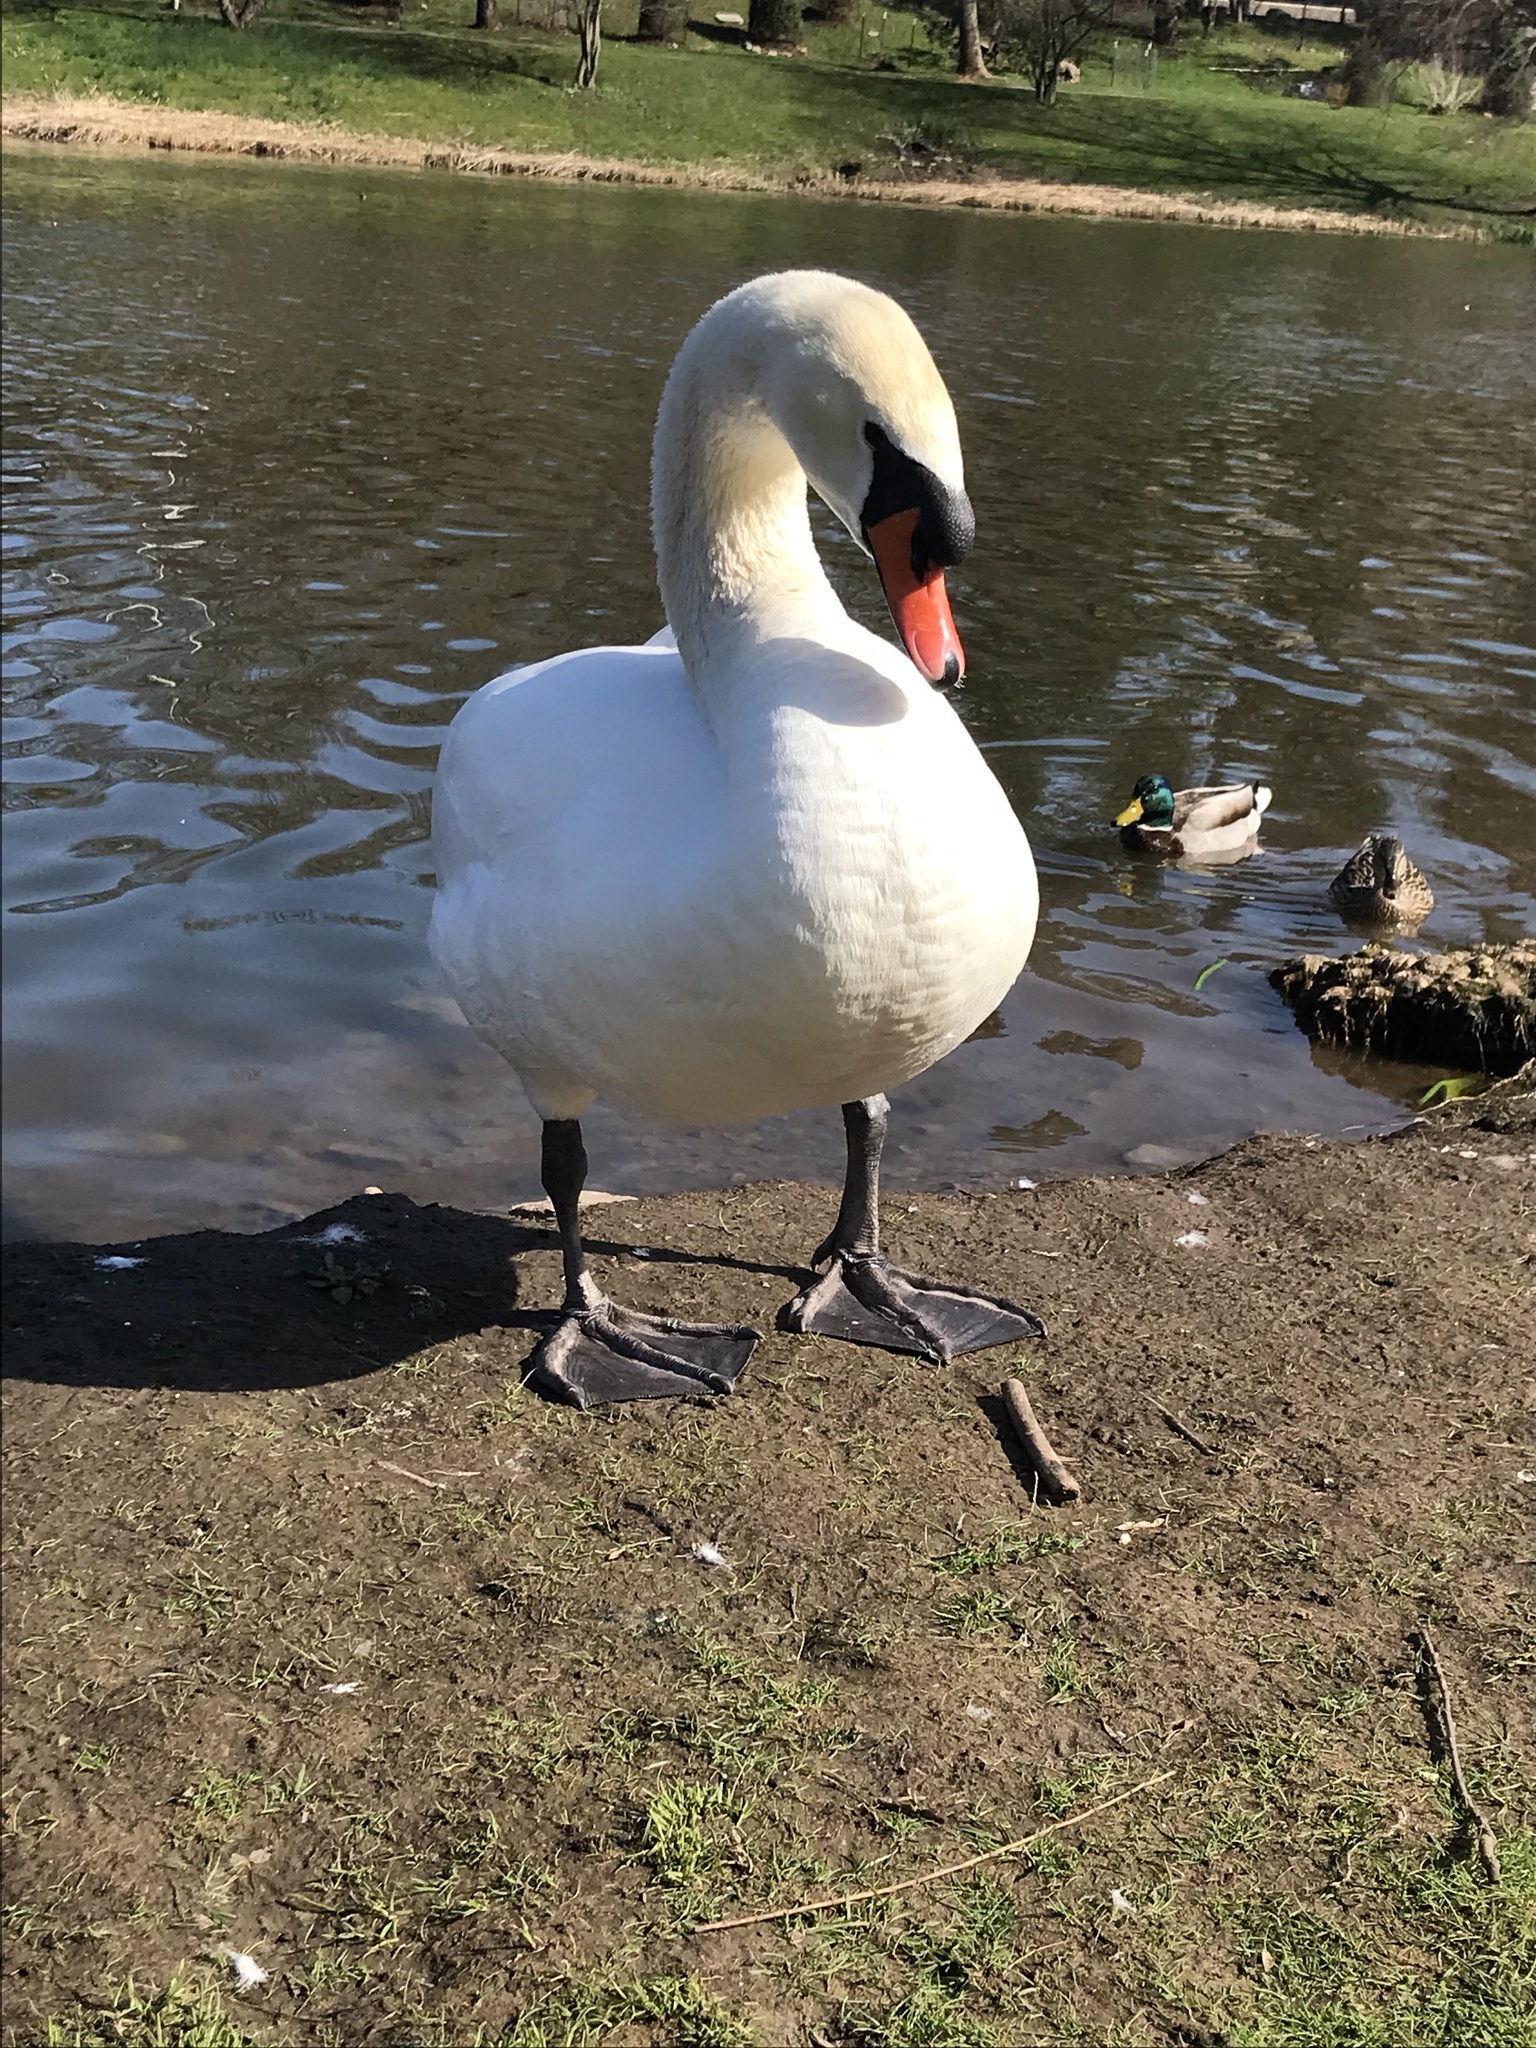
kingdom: Animalia
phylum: Chordata
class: Aves
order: Anseriformes
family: Anatidae
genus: Cygnus
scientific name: Cygnus olor
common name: Mute swan
